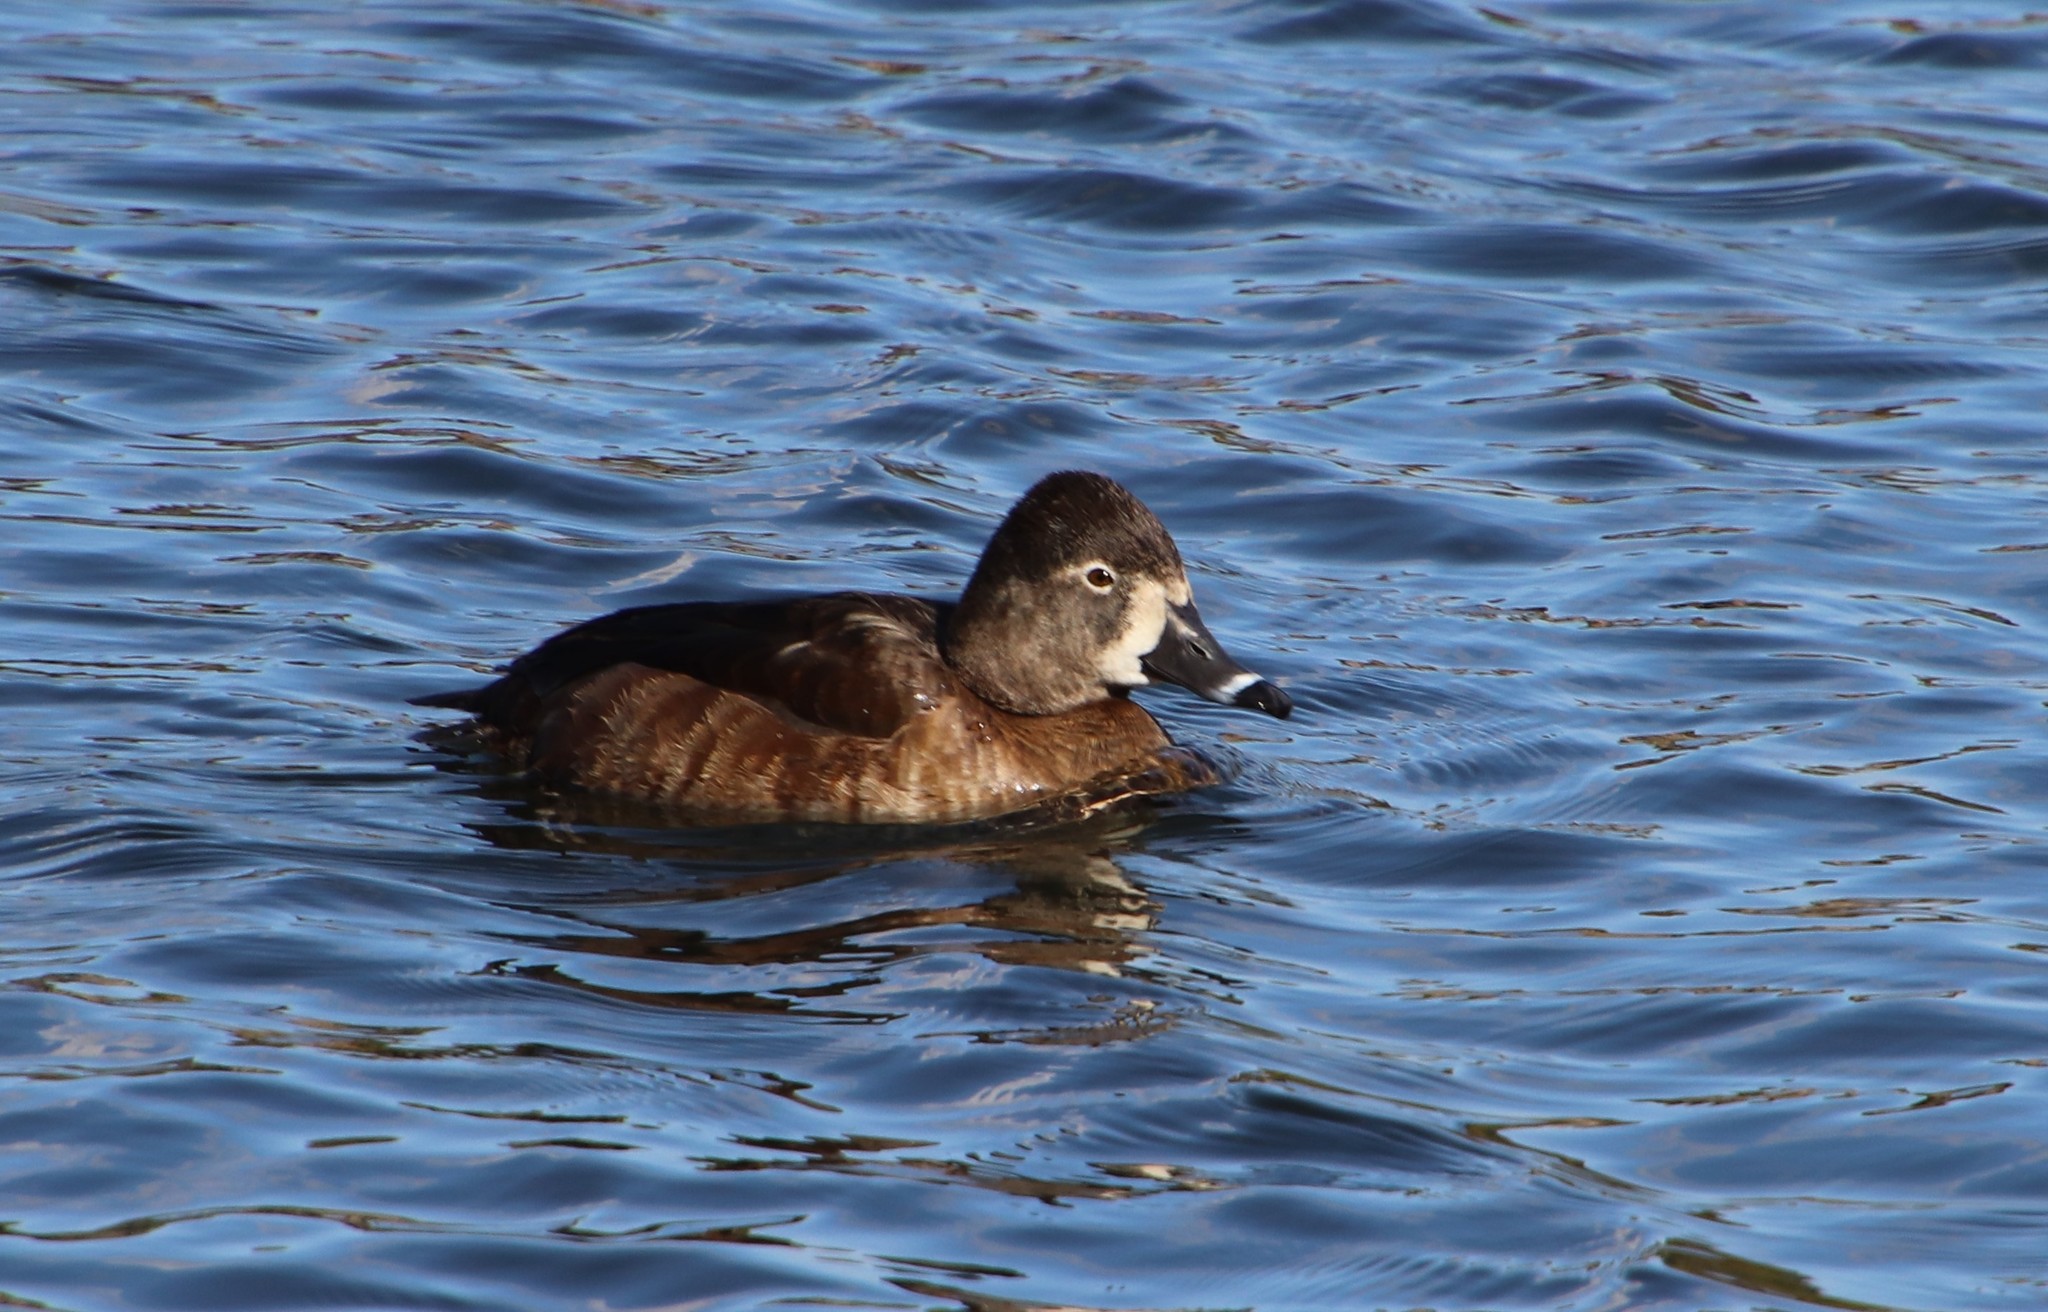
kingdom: Animalia
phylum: Chordata
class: Aves
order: Anseriformes
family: Anatidae
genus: Aythya
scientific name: Aythya collaris
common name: Ring-necked duck
